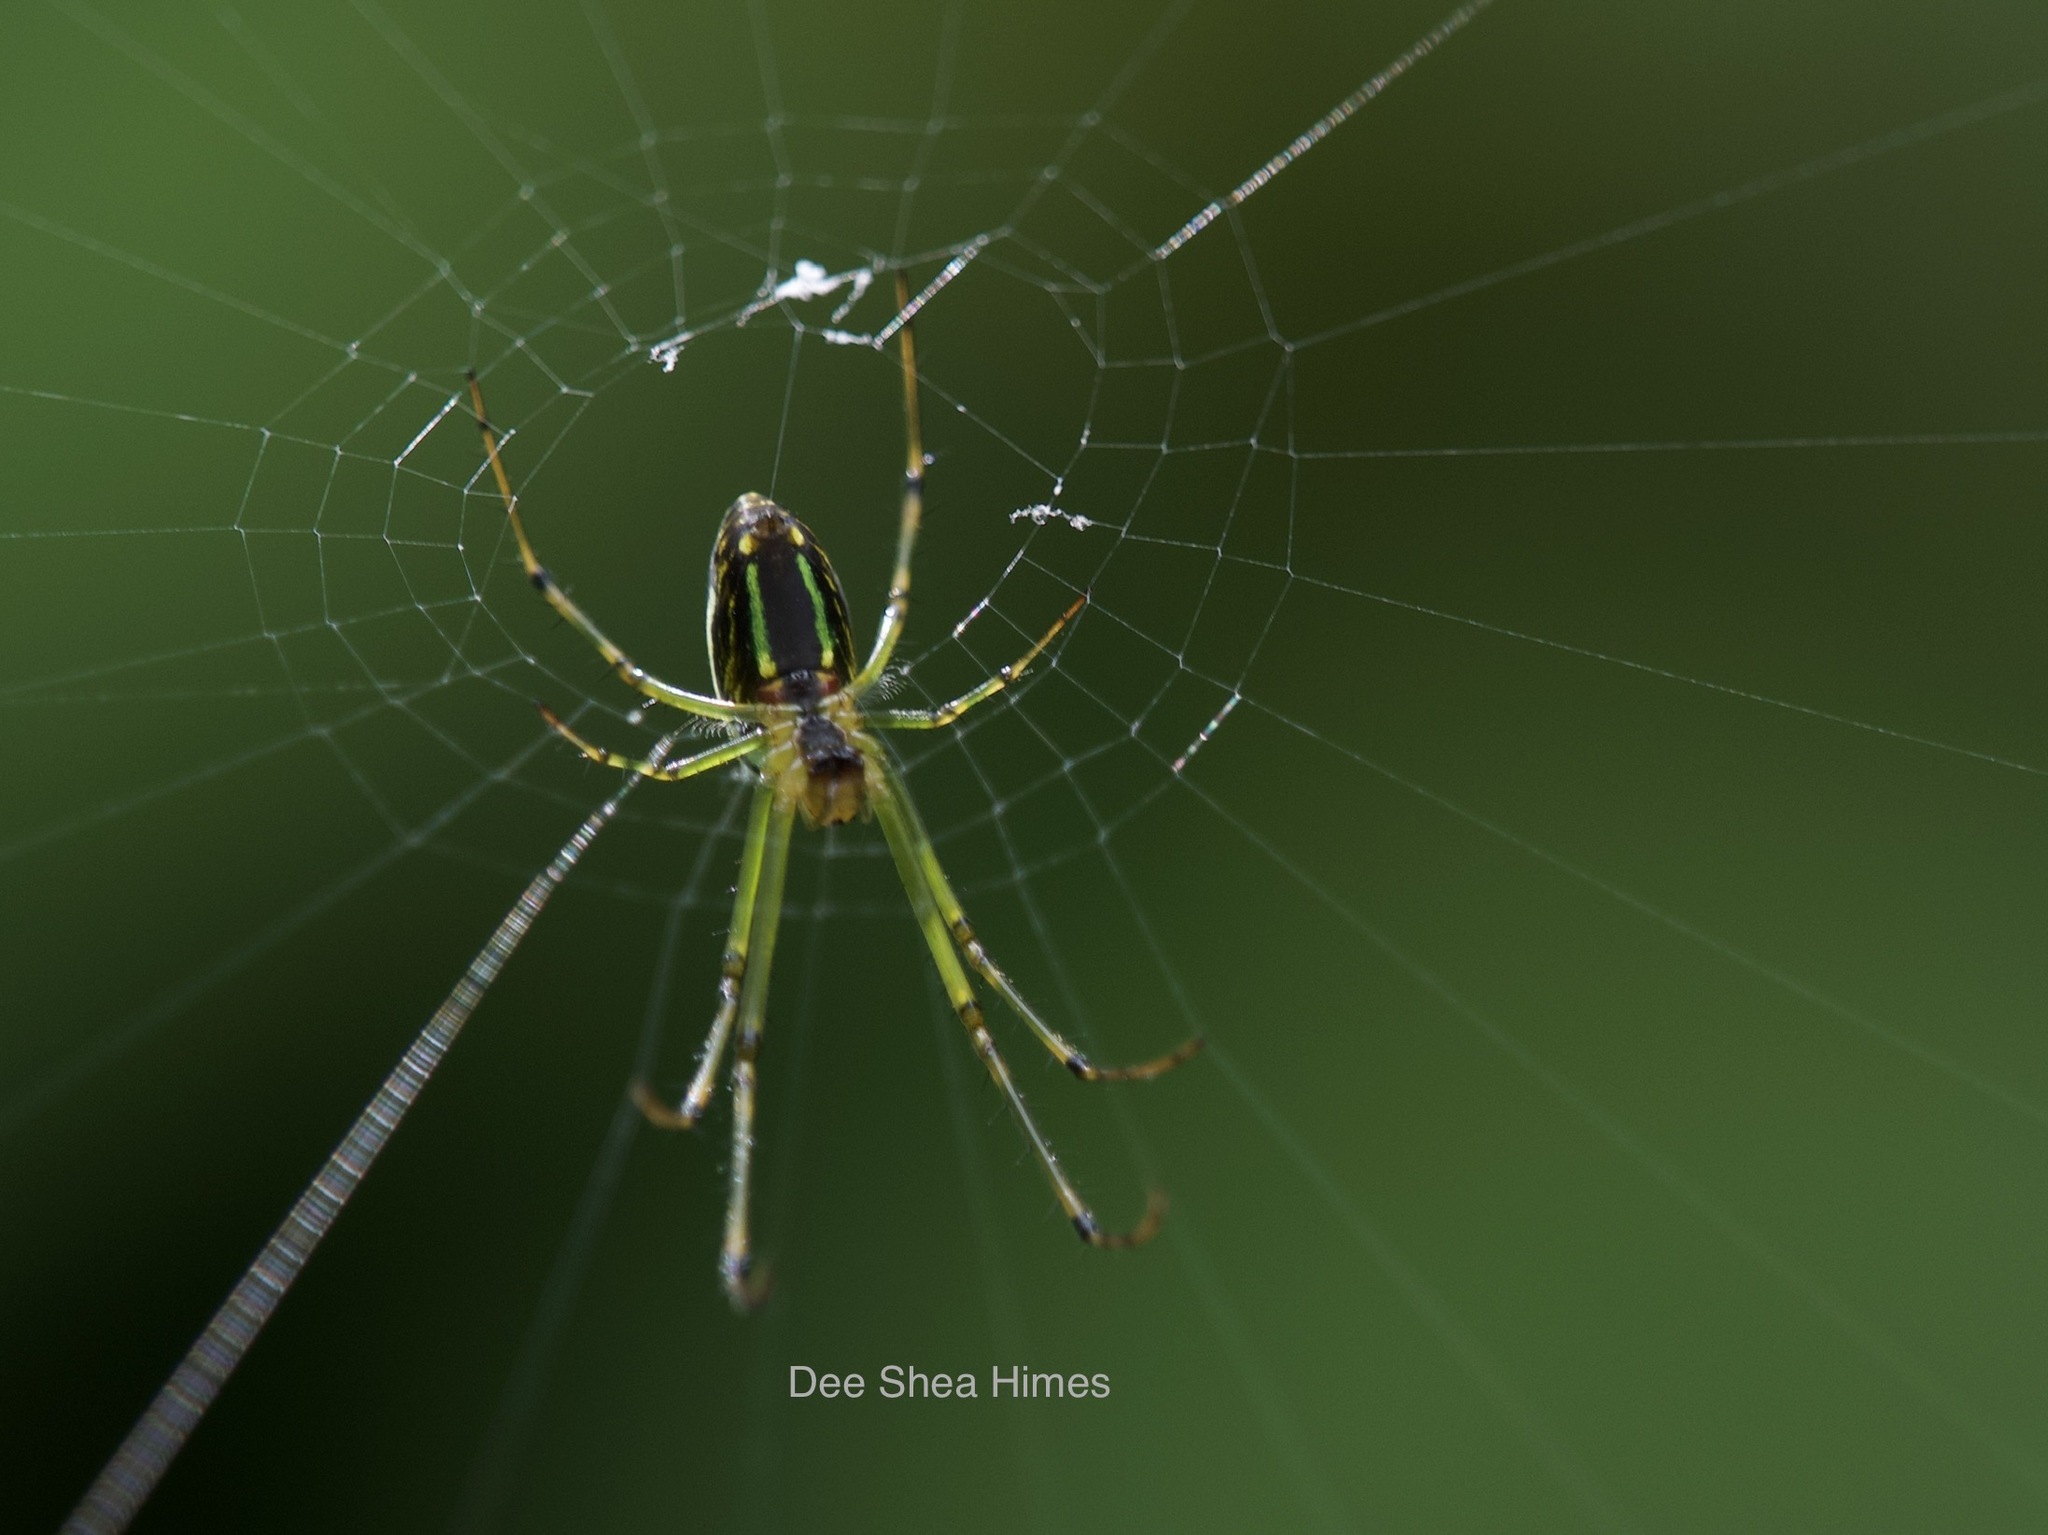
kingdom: Animalia
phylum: Arthropoda
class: Arachnida
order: Araneae
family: Tetragnathidae
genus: Leucauge
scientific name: Leucauge celebesiana
